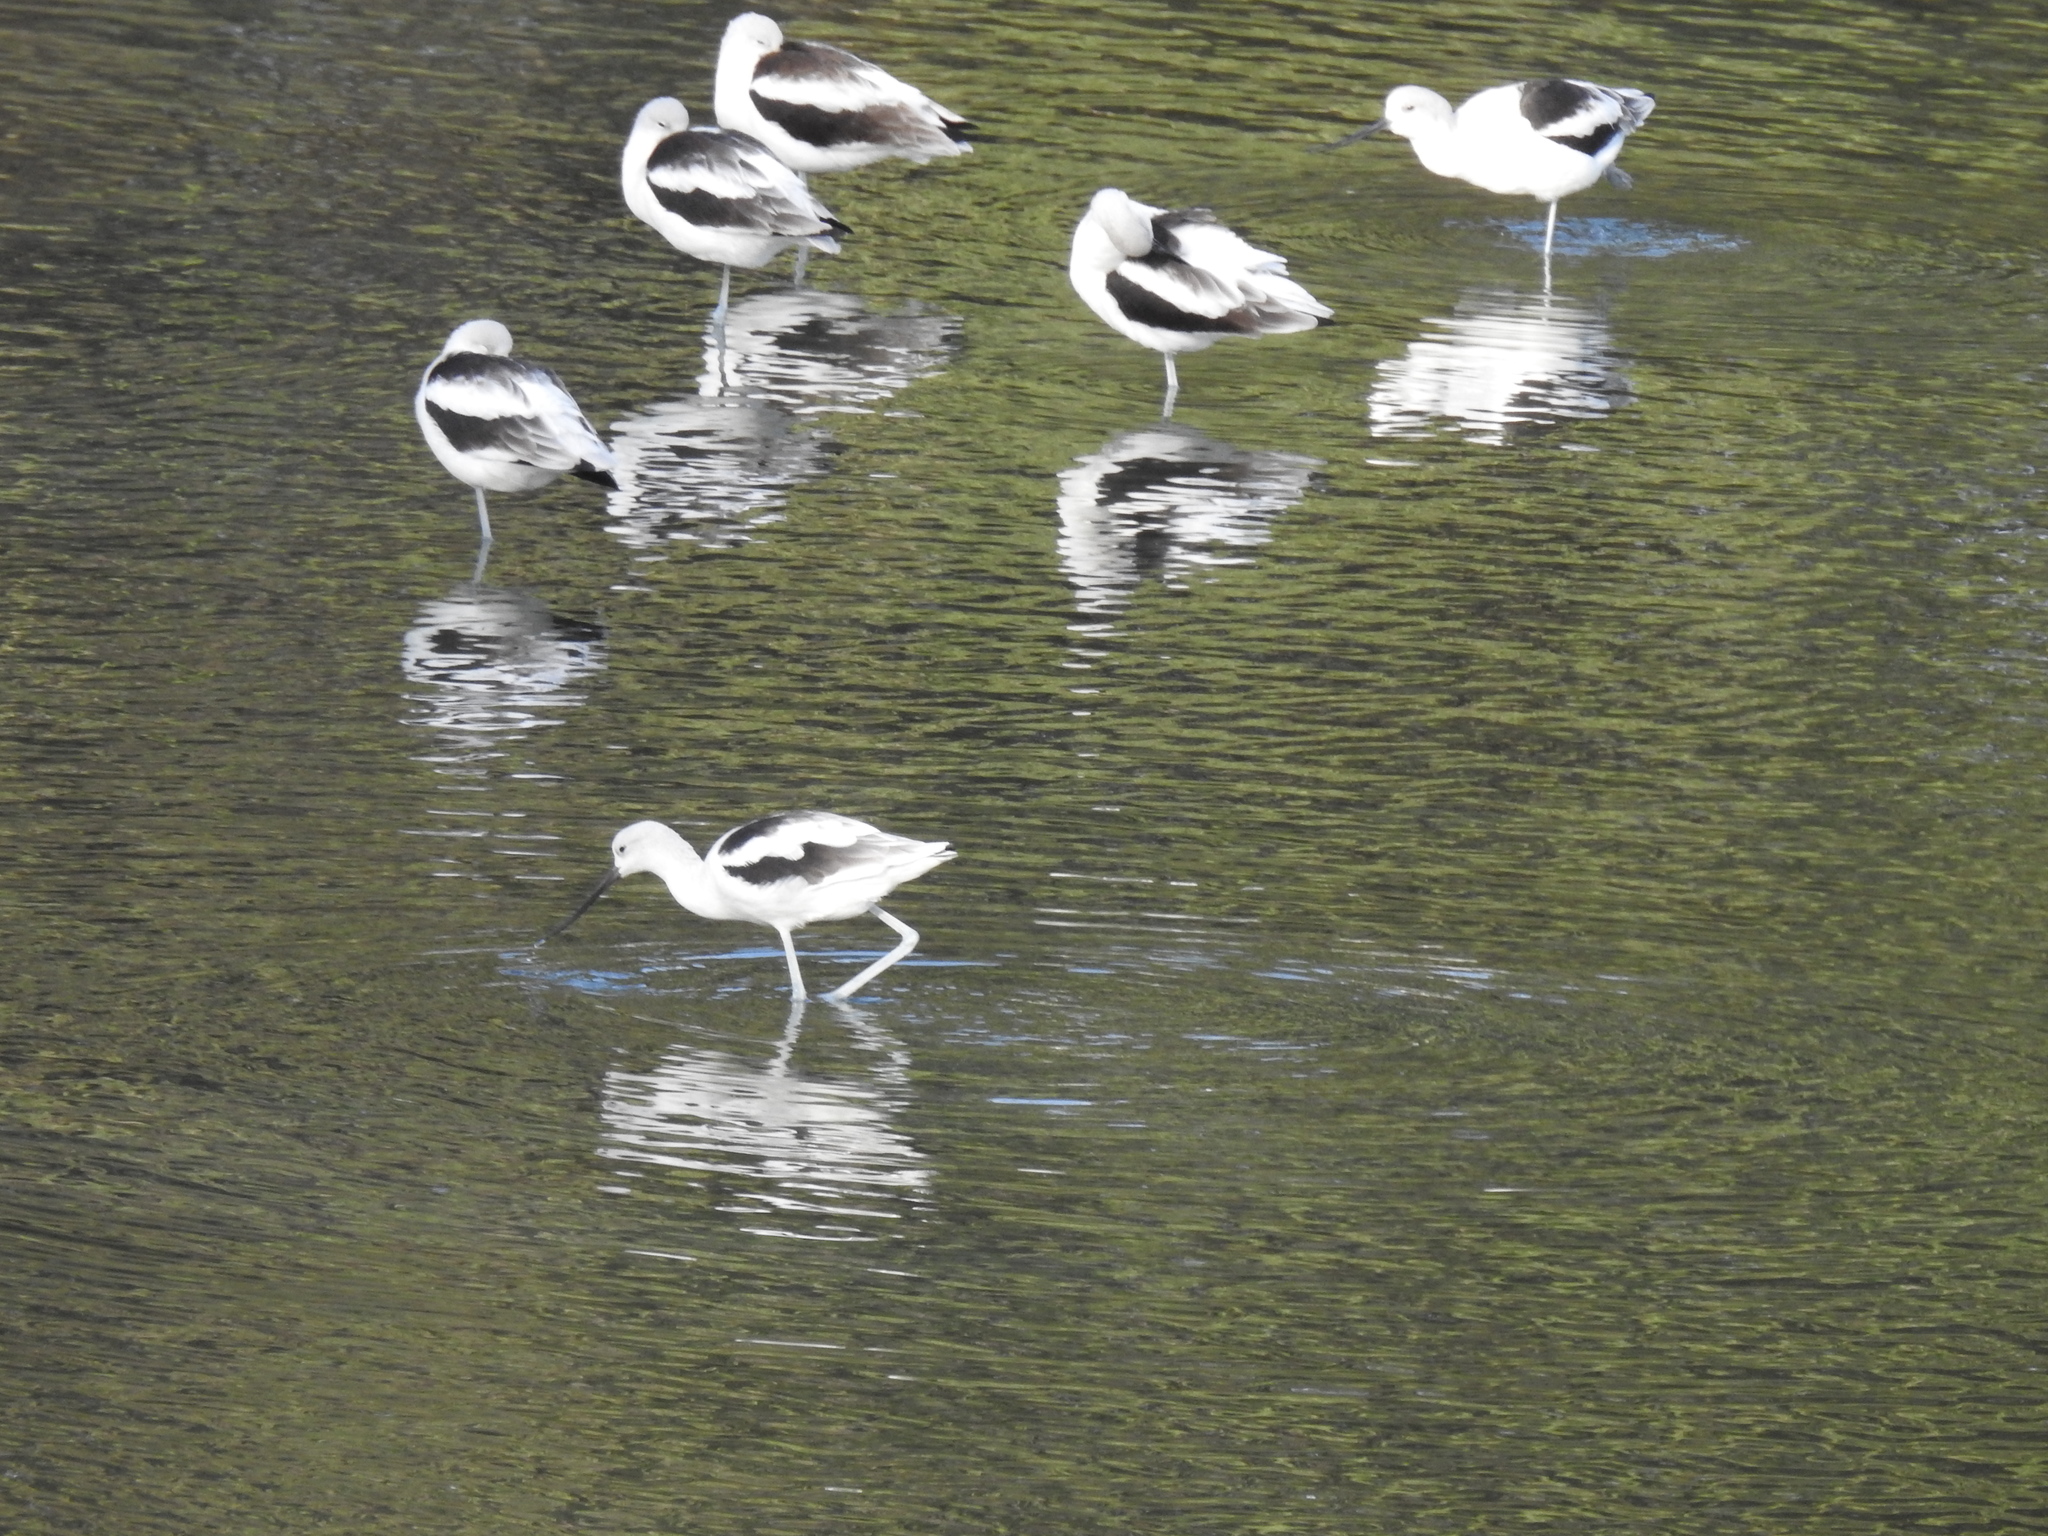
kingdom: Animalia
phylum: Chordata
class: Aves
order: Charadriiformes
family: Recurvirostridae
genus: Recurvirostra
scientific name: Recurvirostra americana
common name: American avocet
